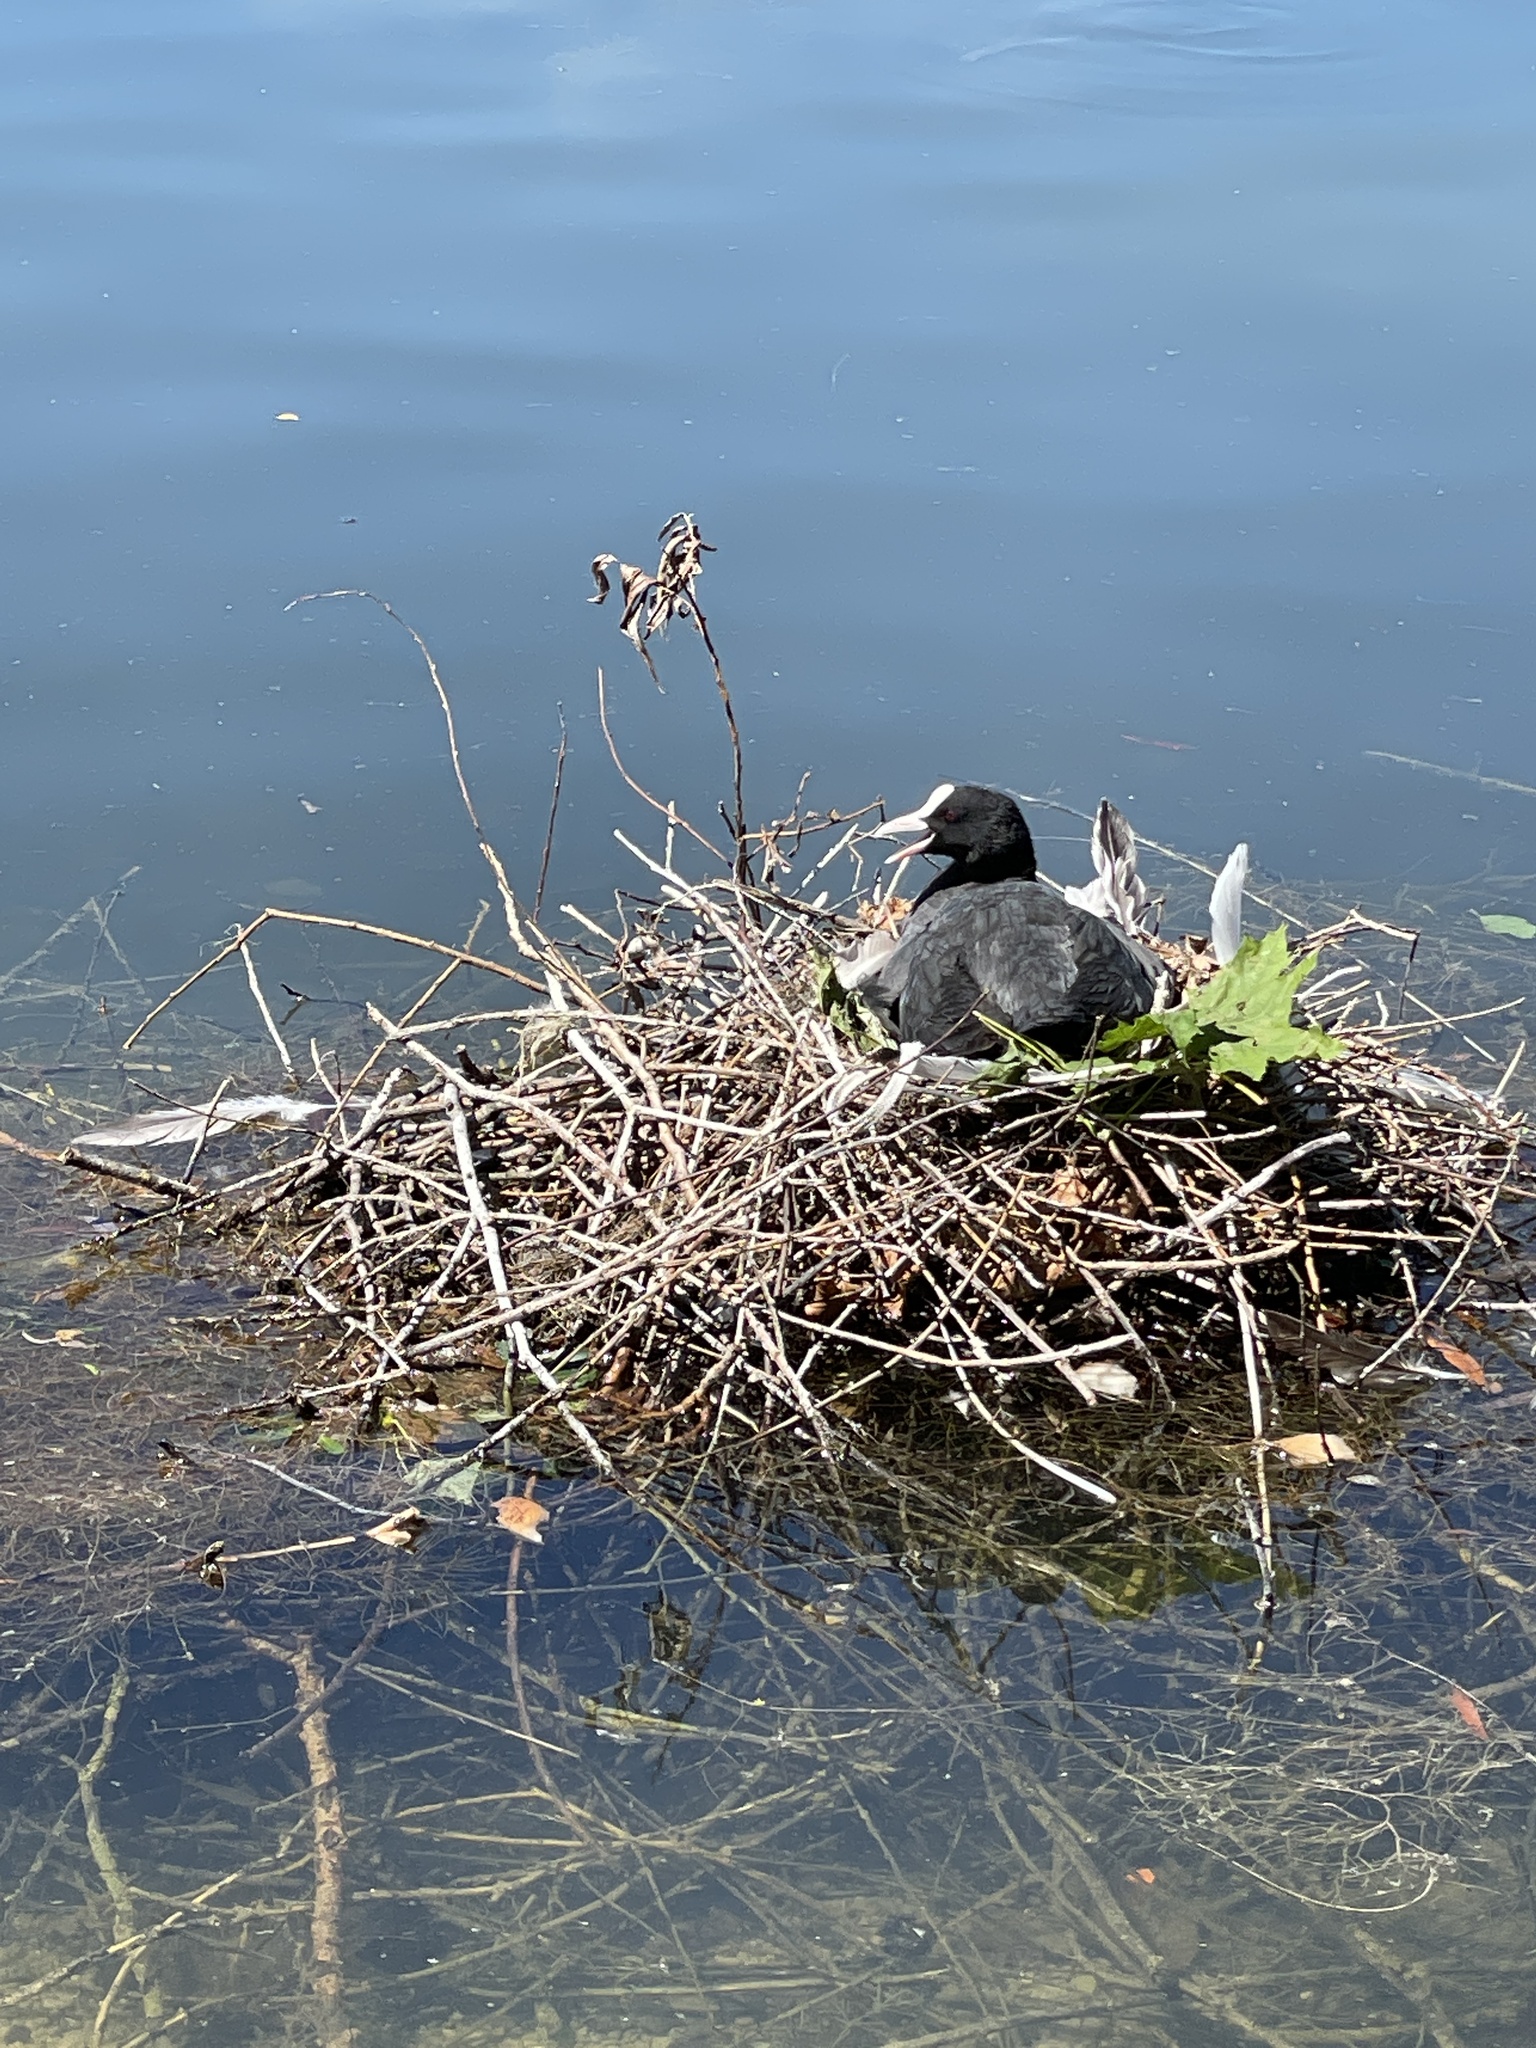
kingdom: Animalia
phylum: Chordata
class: Aves
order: Gruiformes
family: Rallidae
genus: Fulica
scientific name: Fulica atra
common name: Eurasian coot
